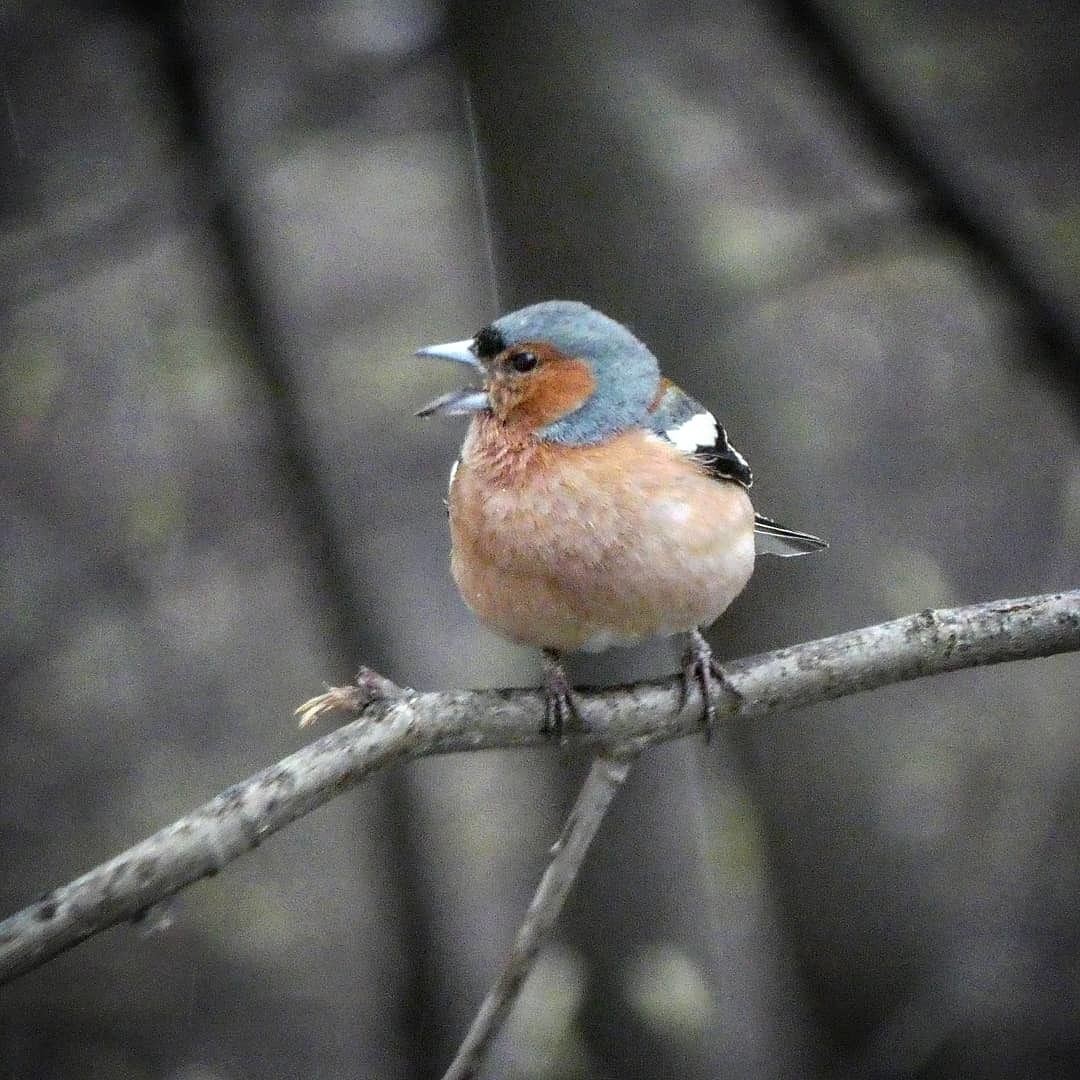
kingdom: Animalia
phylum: Chordata
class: Aves
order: Passeriformes
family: Fringillidae
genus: Fringilla
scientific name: Fringilla coelebs
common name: Common chaffinch
